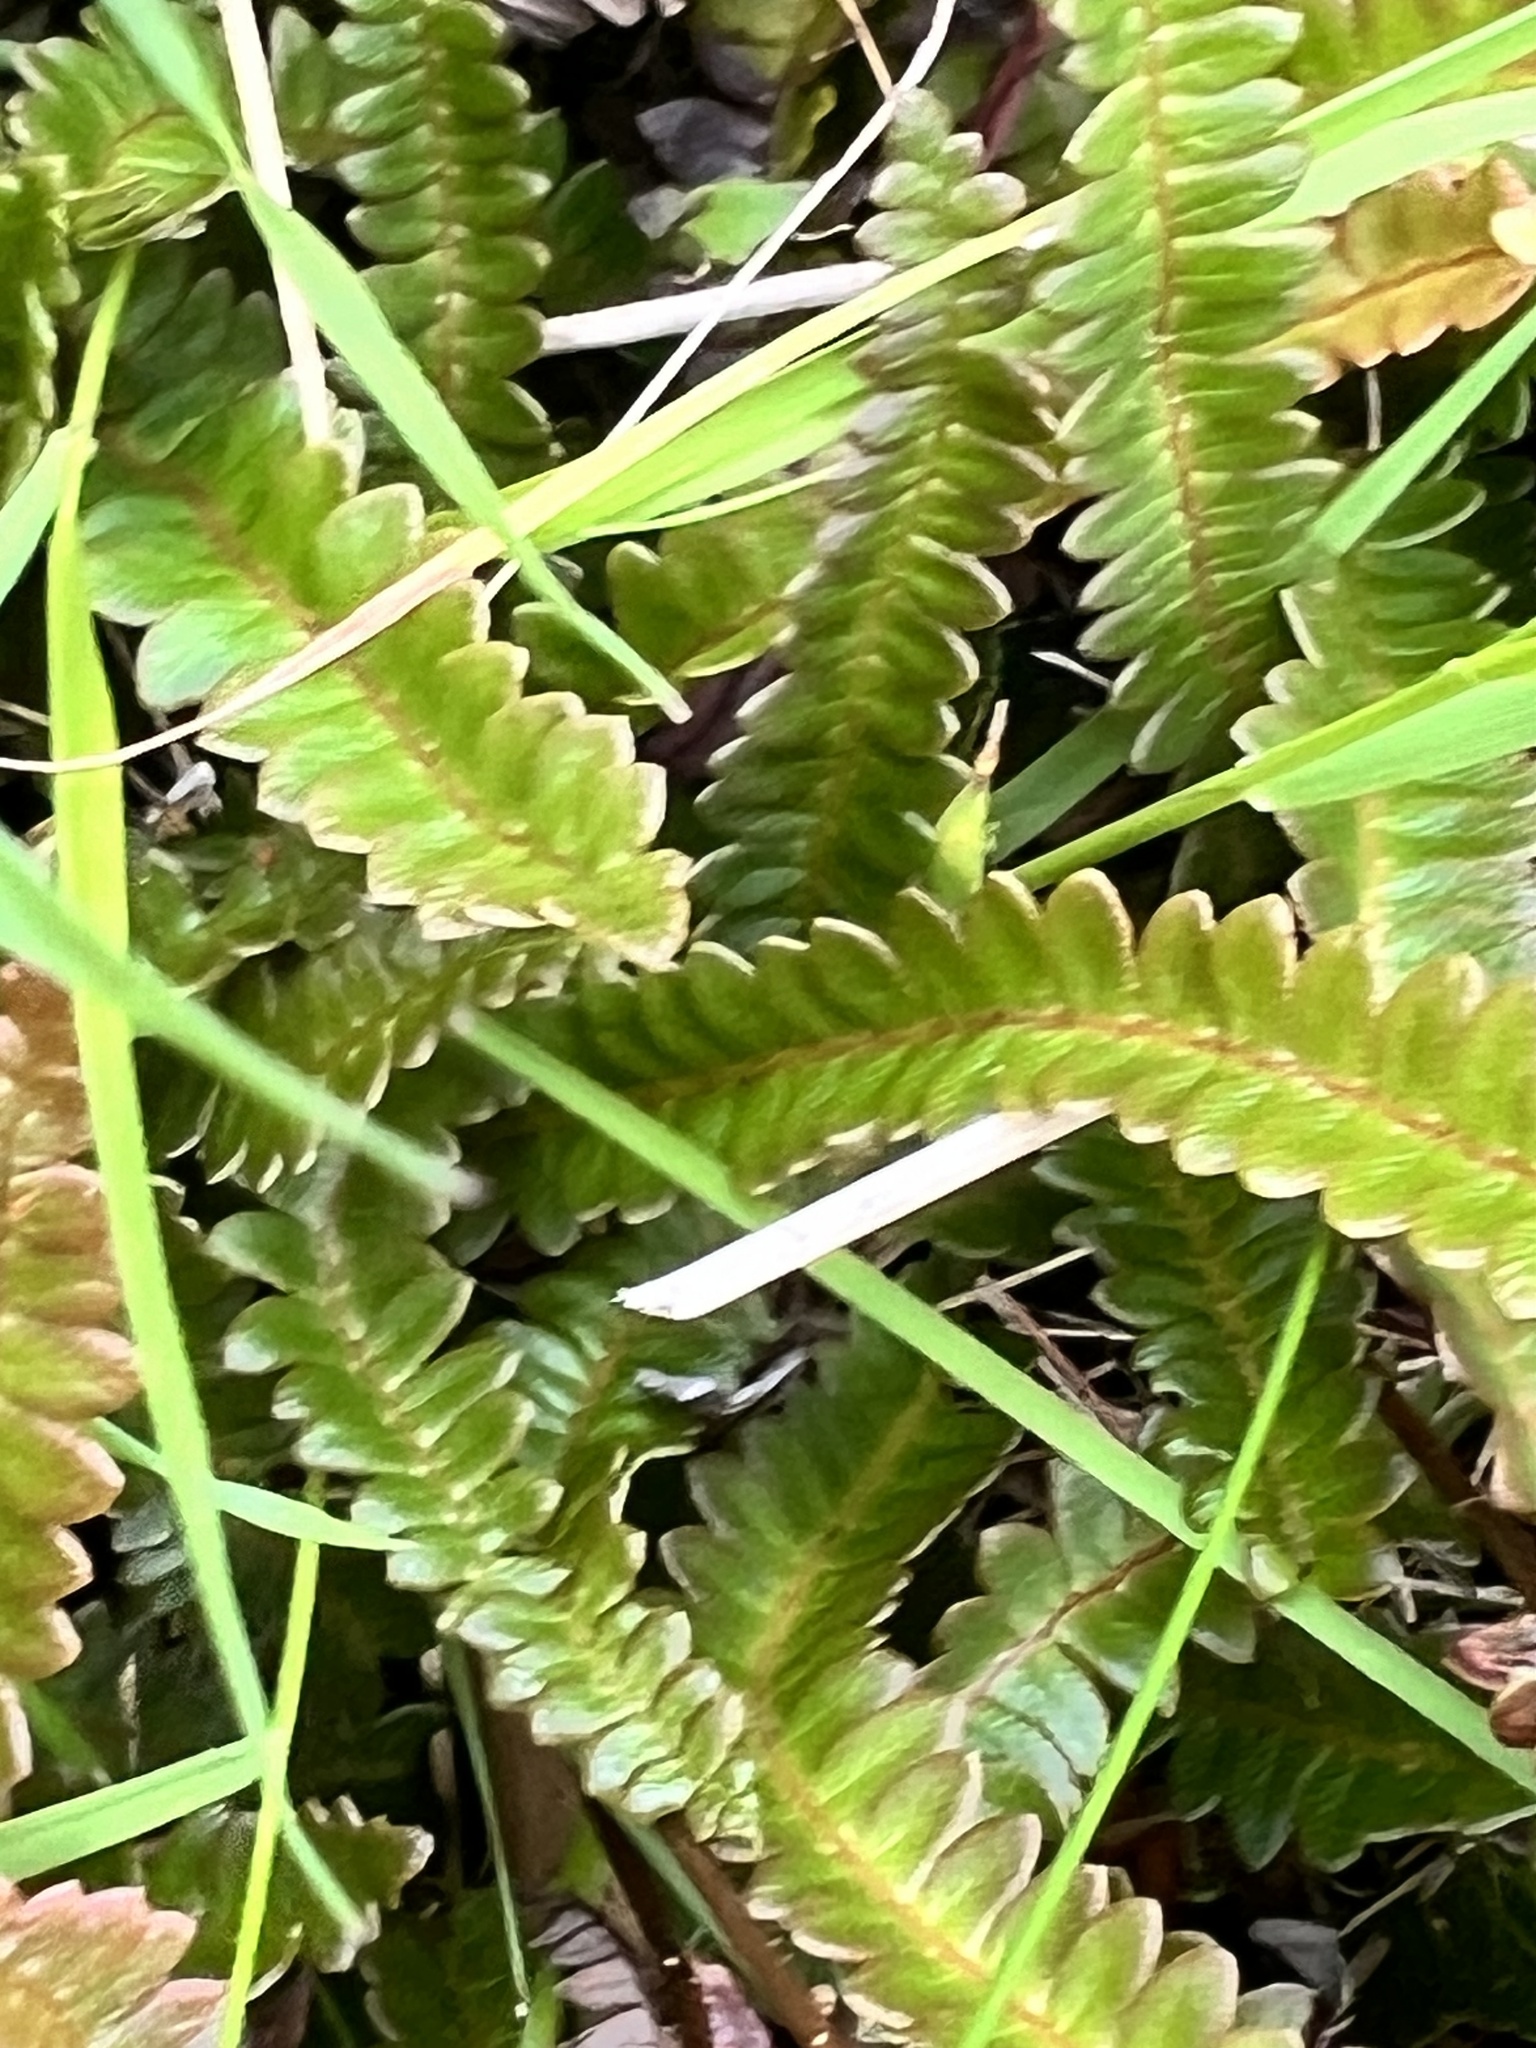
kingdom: Plantae
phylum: Tracheophyta
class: Polypodiopsida
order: Polypodiales
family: Blechnaceae
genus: Austroblechnum
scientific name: Austroblechnum penna-marina
